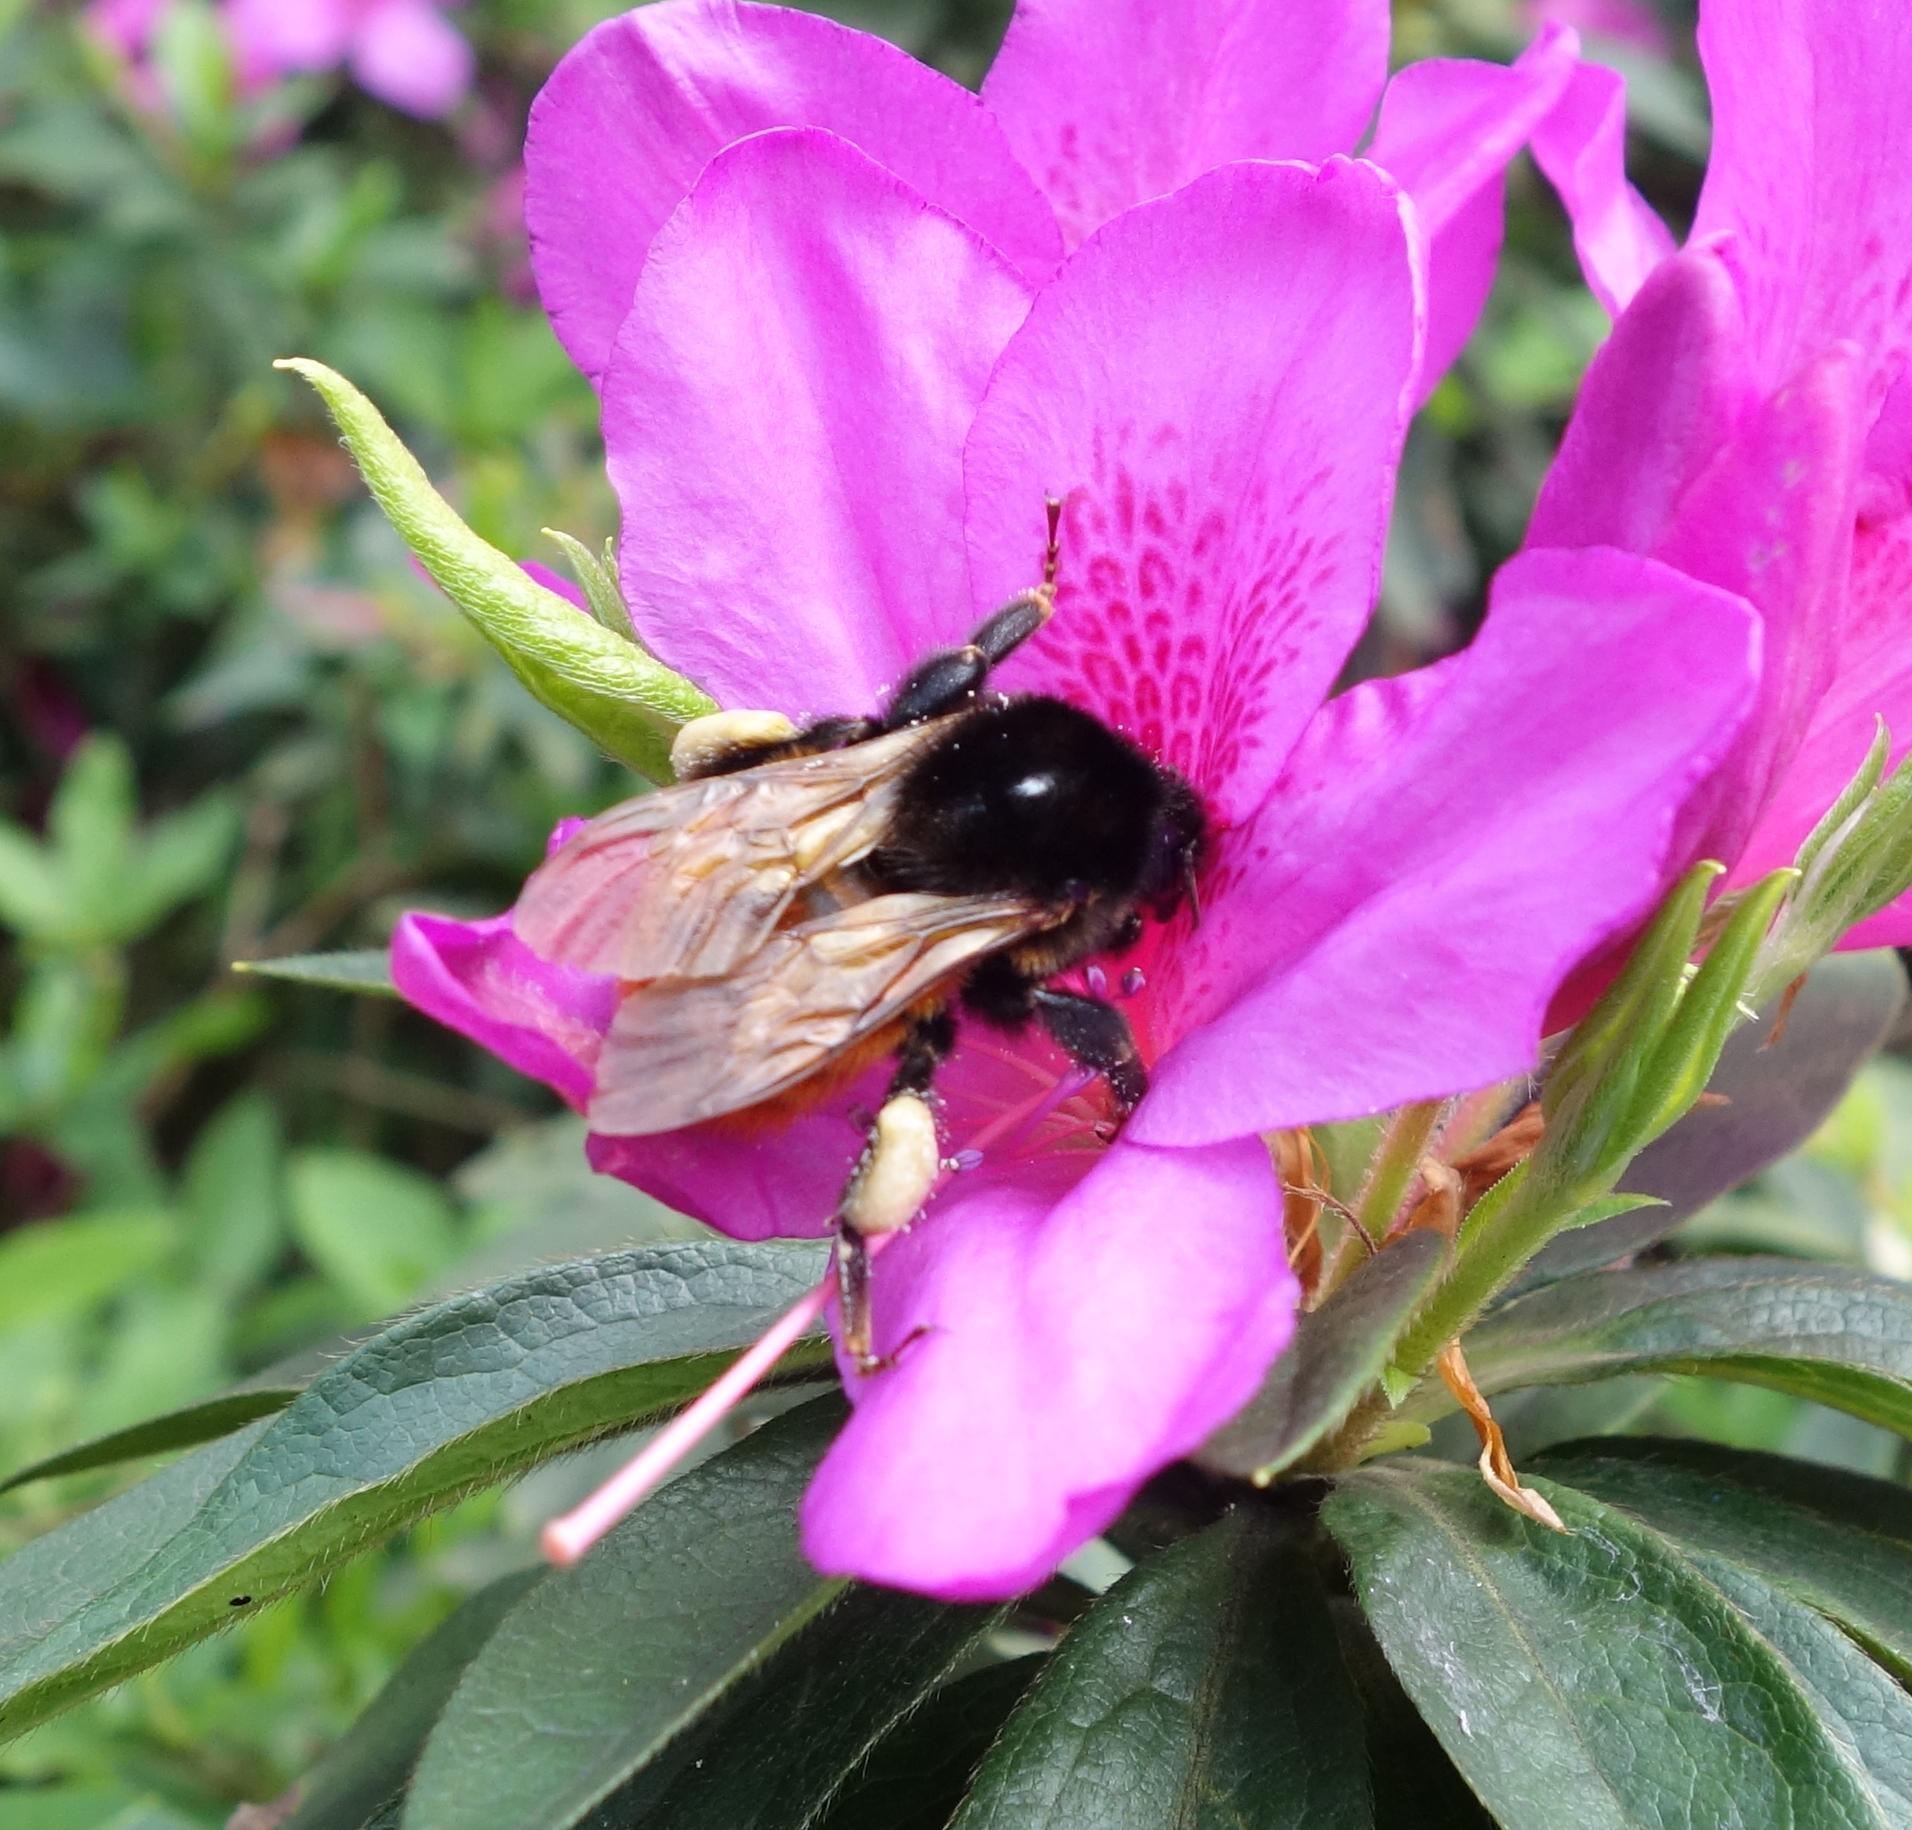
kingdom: Animalia
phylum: Arthropoda
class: Insecta
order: Hymenoptera
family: Apidae
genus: Bombus
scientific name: Bombus bicoloratus
